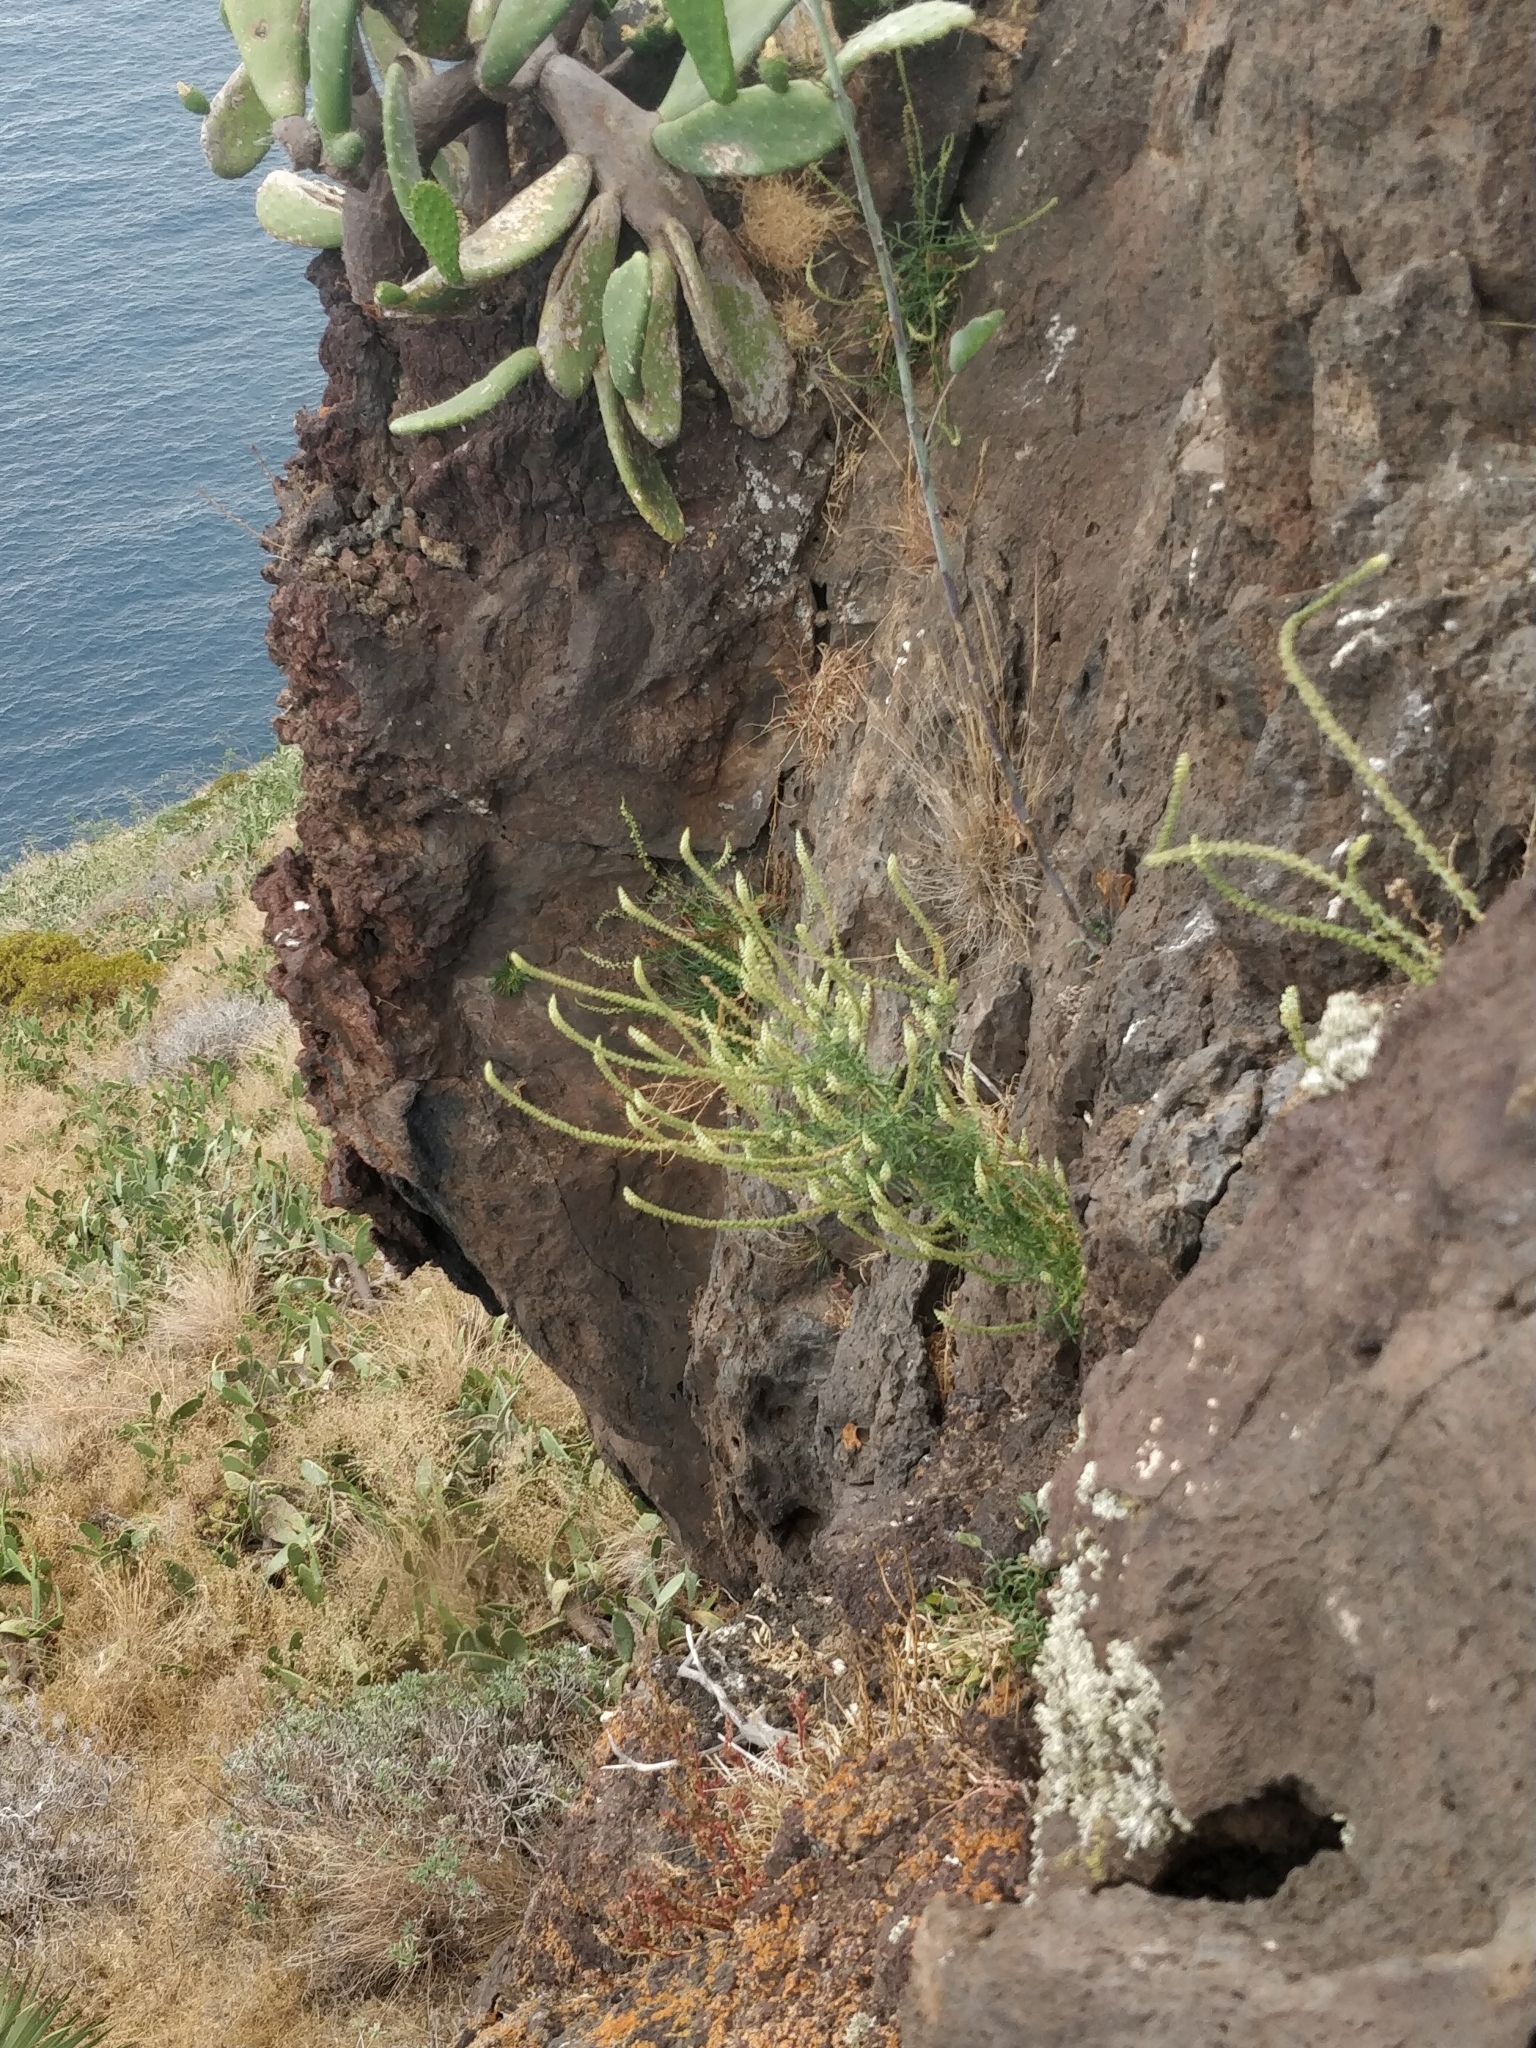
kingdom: Plantae
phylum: Tracheophyta
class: Magnoliopsida
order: Brassicales
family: Resedaceae
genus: Reseda
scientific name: Reseda luteola
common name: Weld
